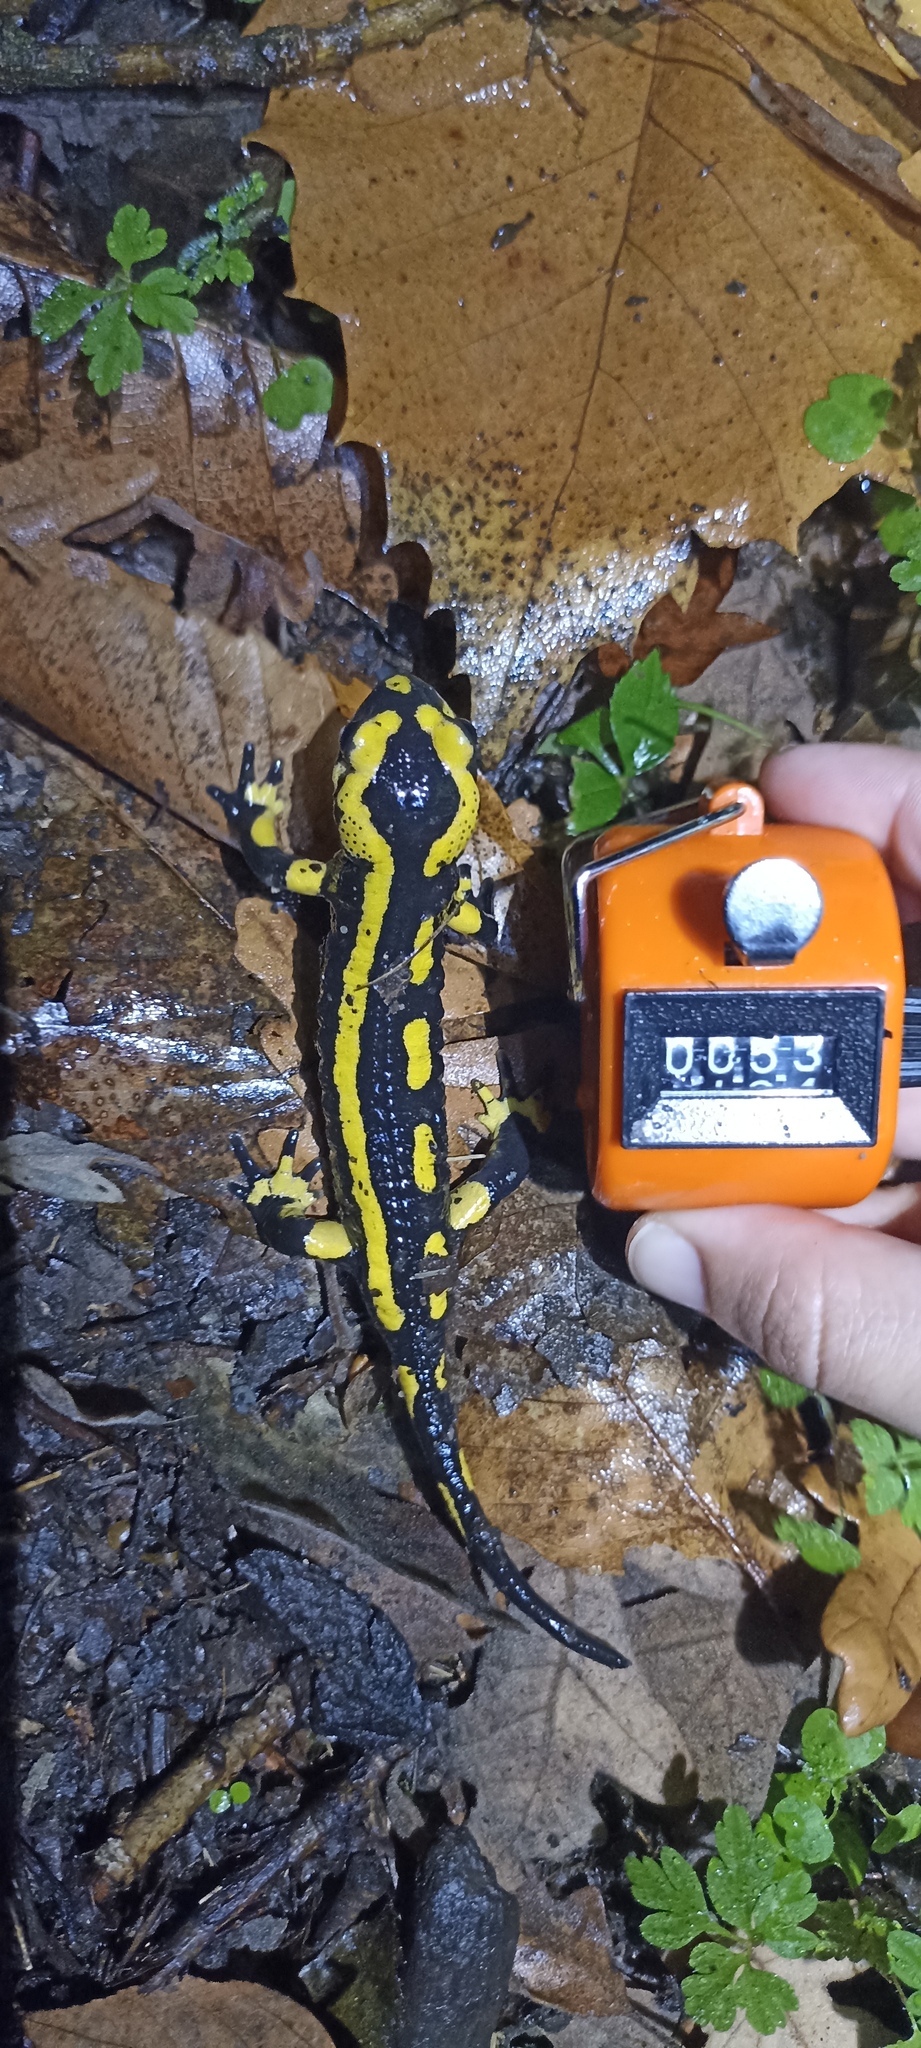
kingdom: Animalia
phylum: Chordata
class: Amphibia
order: Caudata
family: Salamandridae
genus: Salamandra
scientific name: Salamandra salamandra
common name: Fire salamander
